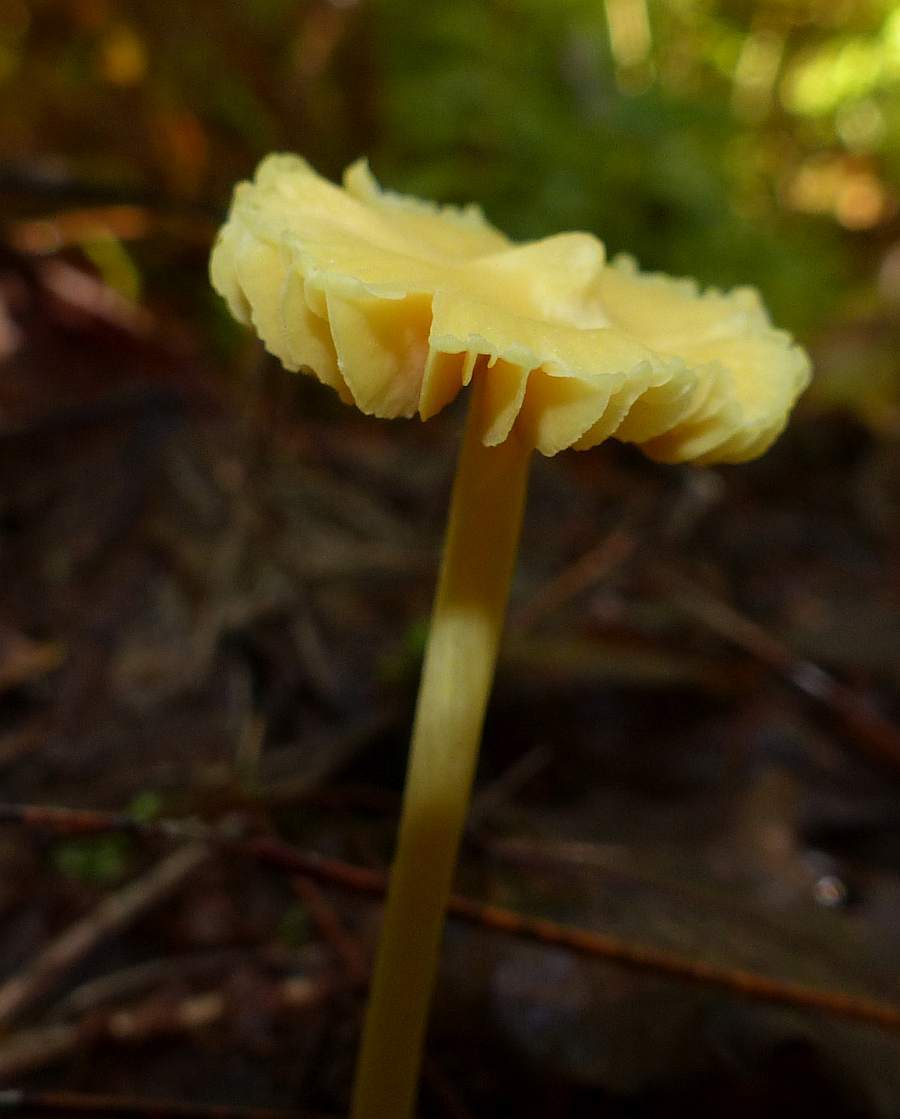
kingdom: Fungi
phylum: Basidiomycota
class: Agaricomycetes
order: Agaricales
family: Entolomataceae
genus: Entoloma
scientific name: Entoloma murrayi
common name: Yellow unicorn entoloma
